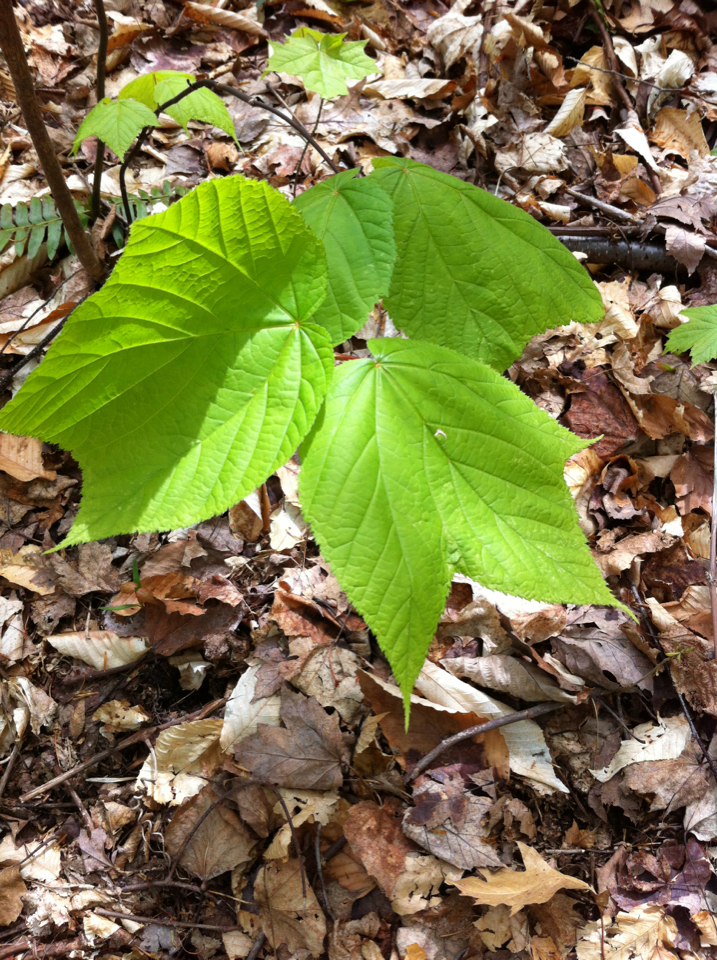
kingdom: Plantae
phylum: Tracheophyta
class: Magnoliopsida
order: Sapindales
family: Sapindaceae
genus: Acer
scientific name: Acer pensylvanicum
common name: Moosewood
